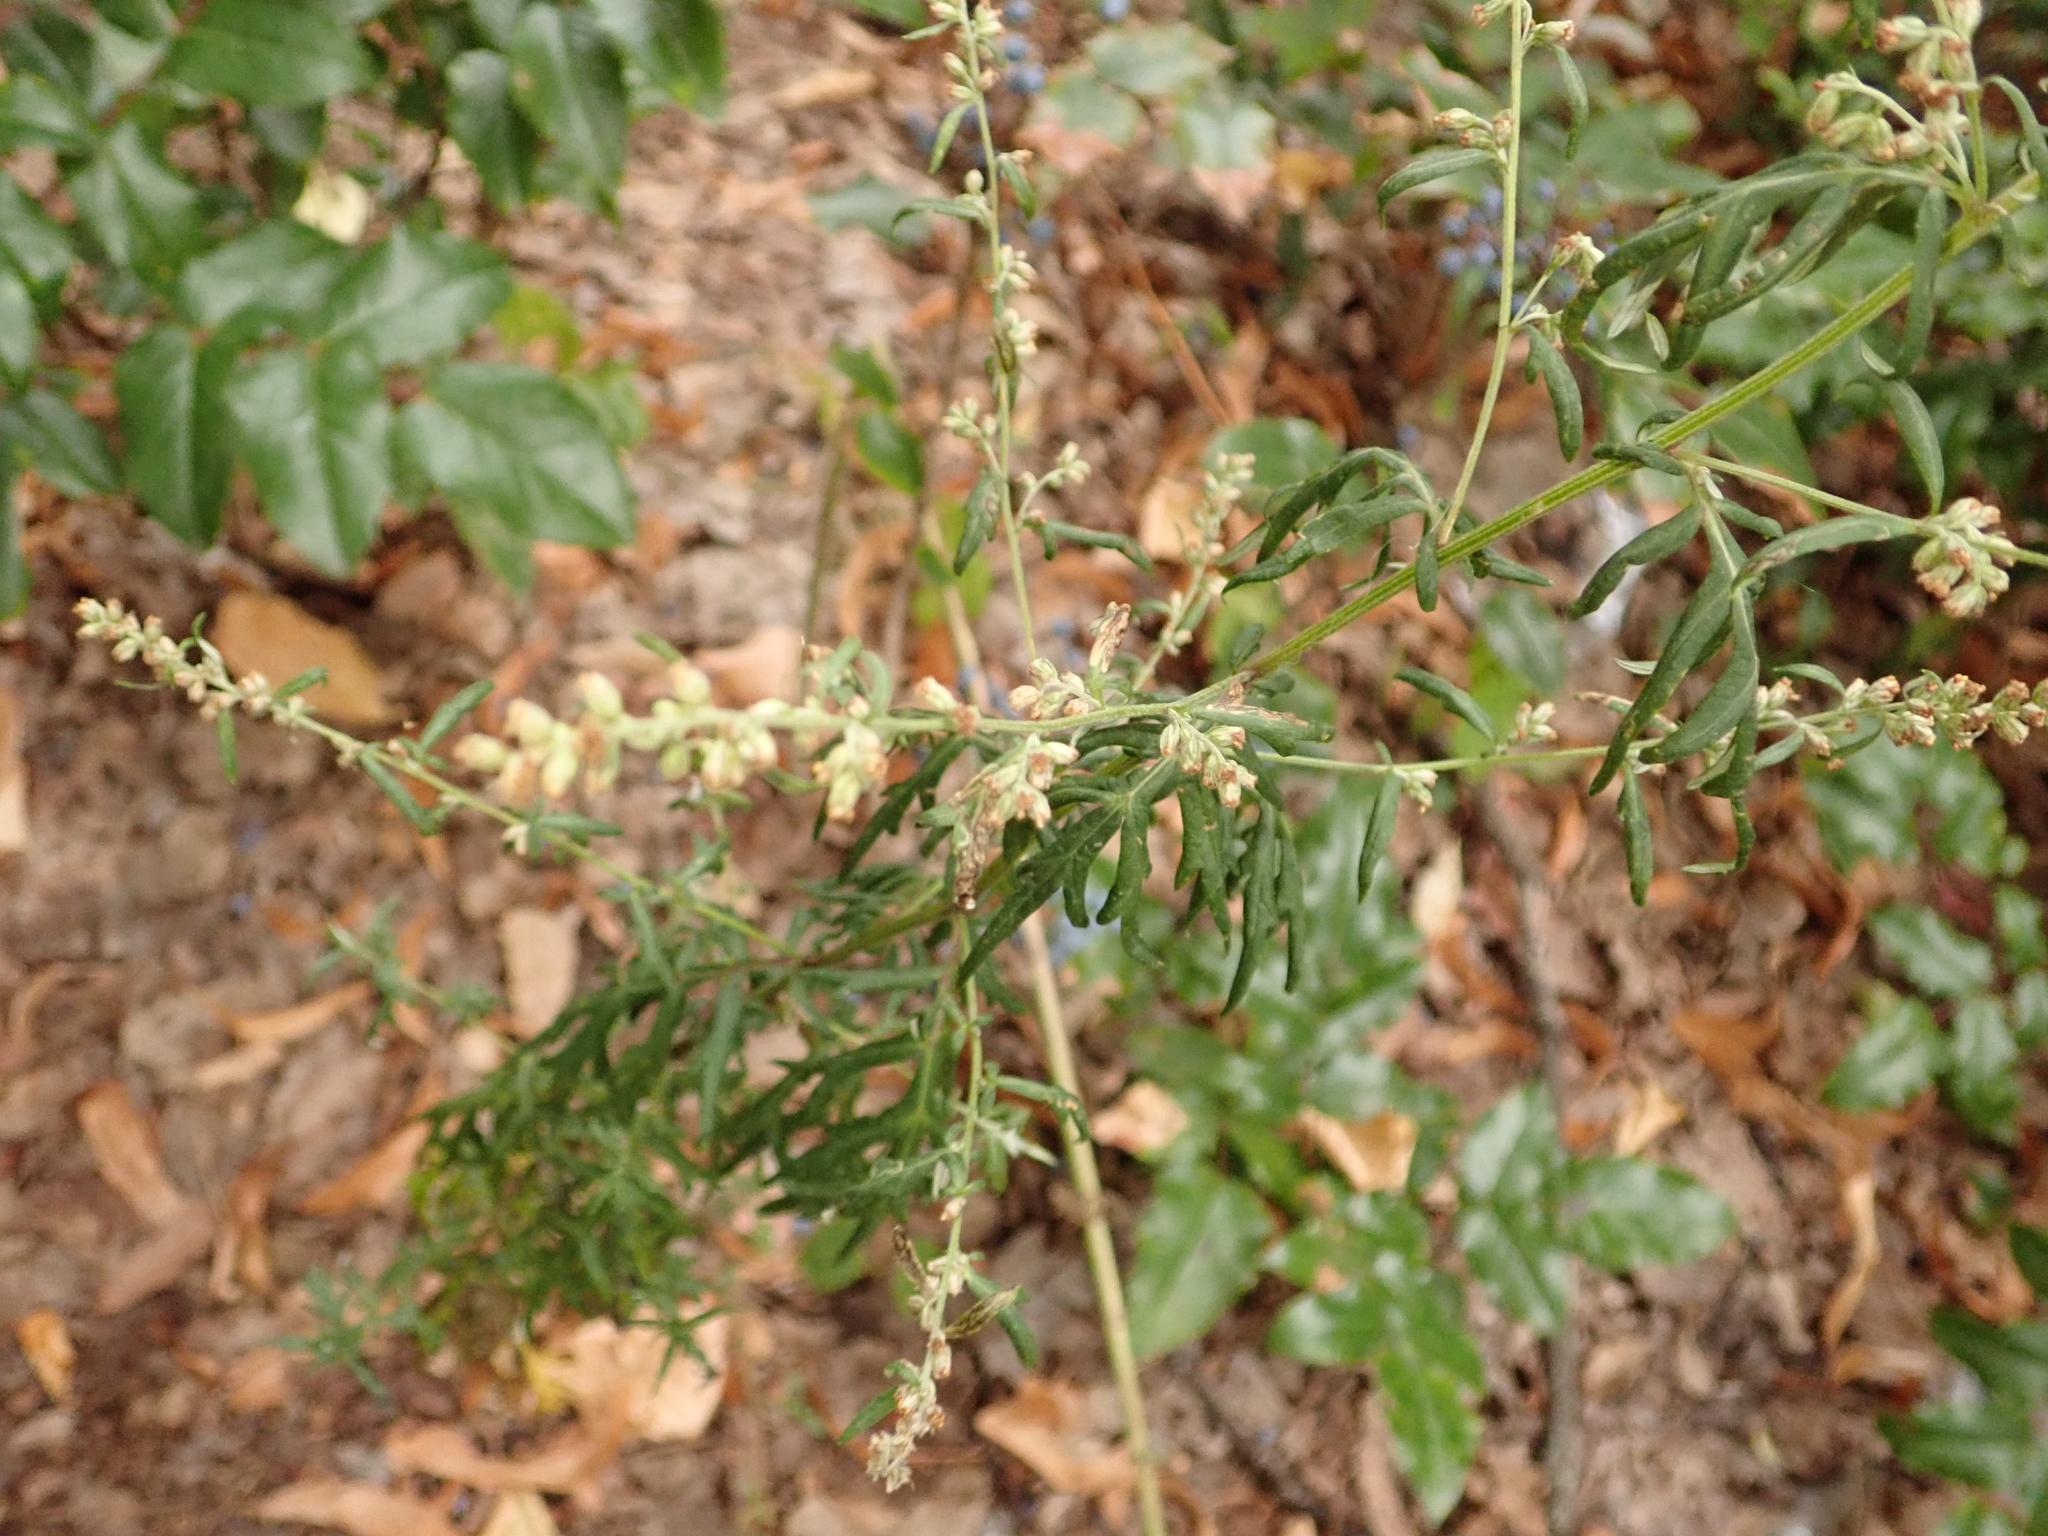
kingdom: Plantae
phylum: Tracheophyta
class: Magnoliopsida
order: Asterales
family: Asteraceae
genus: Artemisia
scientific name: Artemisia vulgaris
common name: Mugwort
